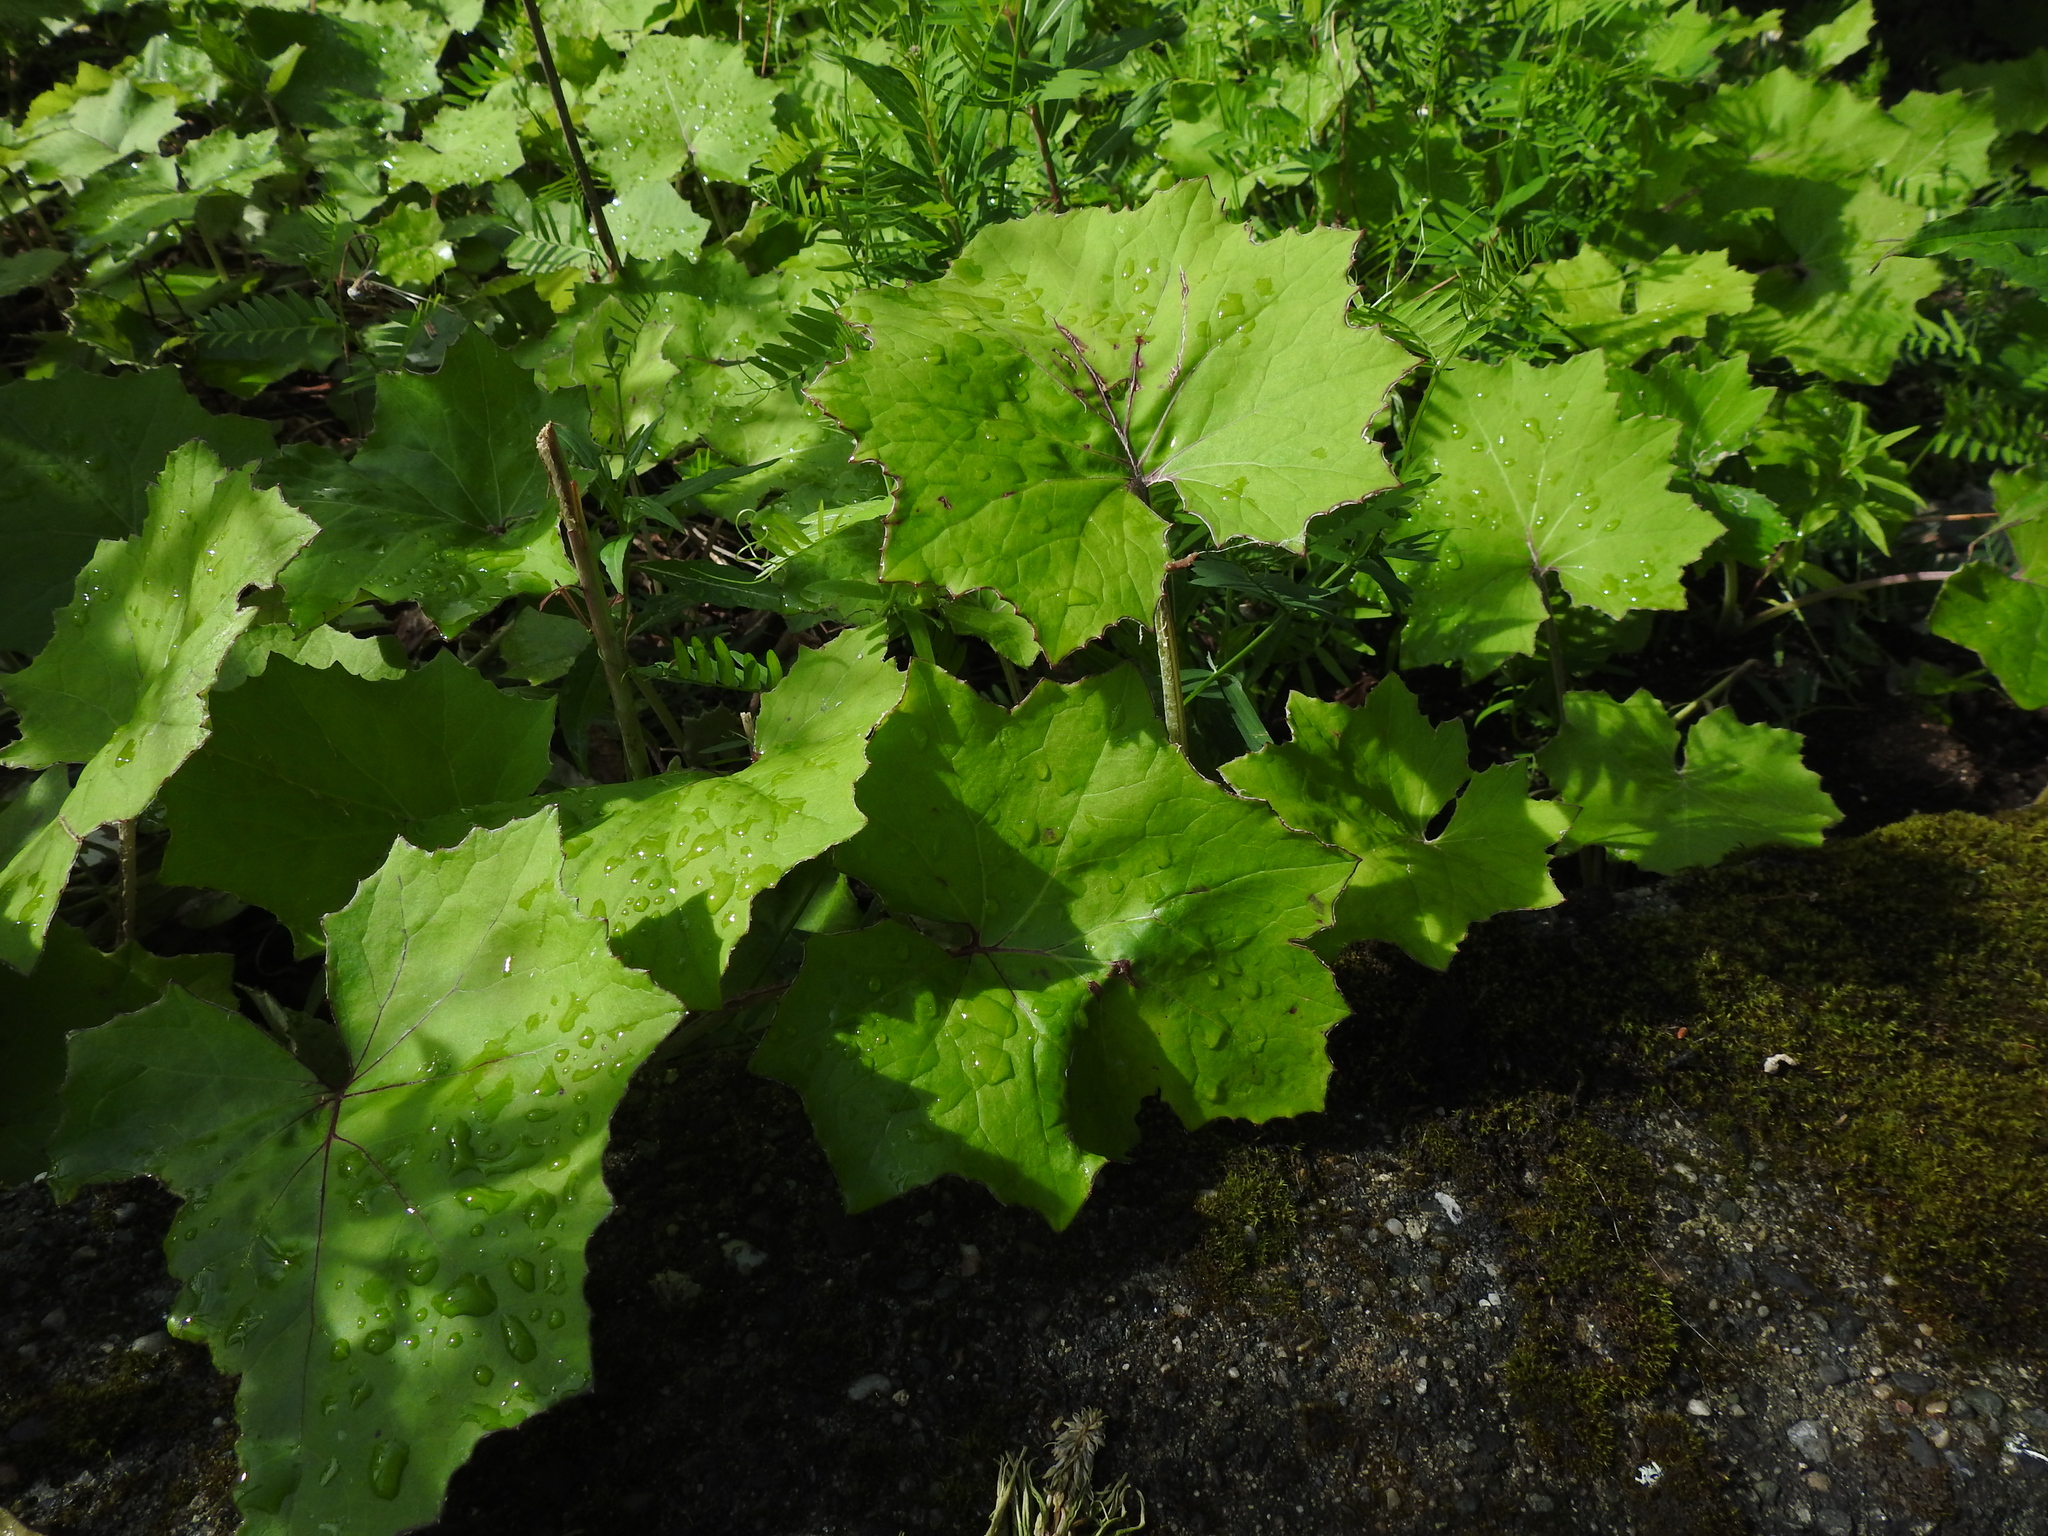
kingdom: Plantae
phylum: Tracheophyta
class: Magnoliopsida
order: Asterales
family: Asteraceae
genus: Tussilago
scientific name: Tussilago farfara
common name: Coltsfoot
